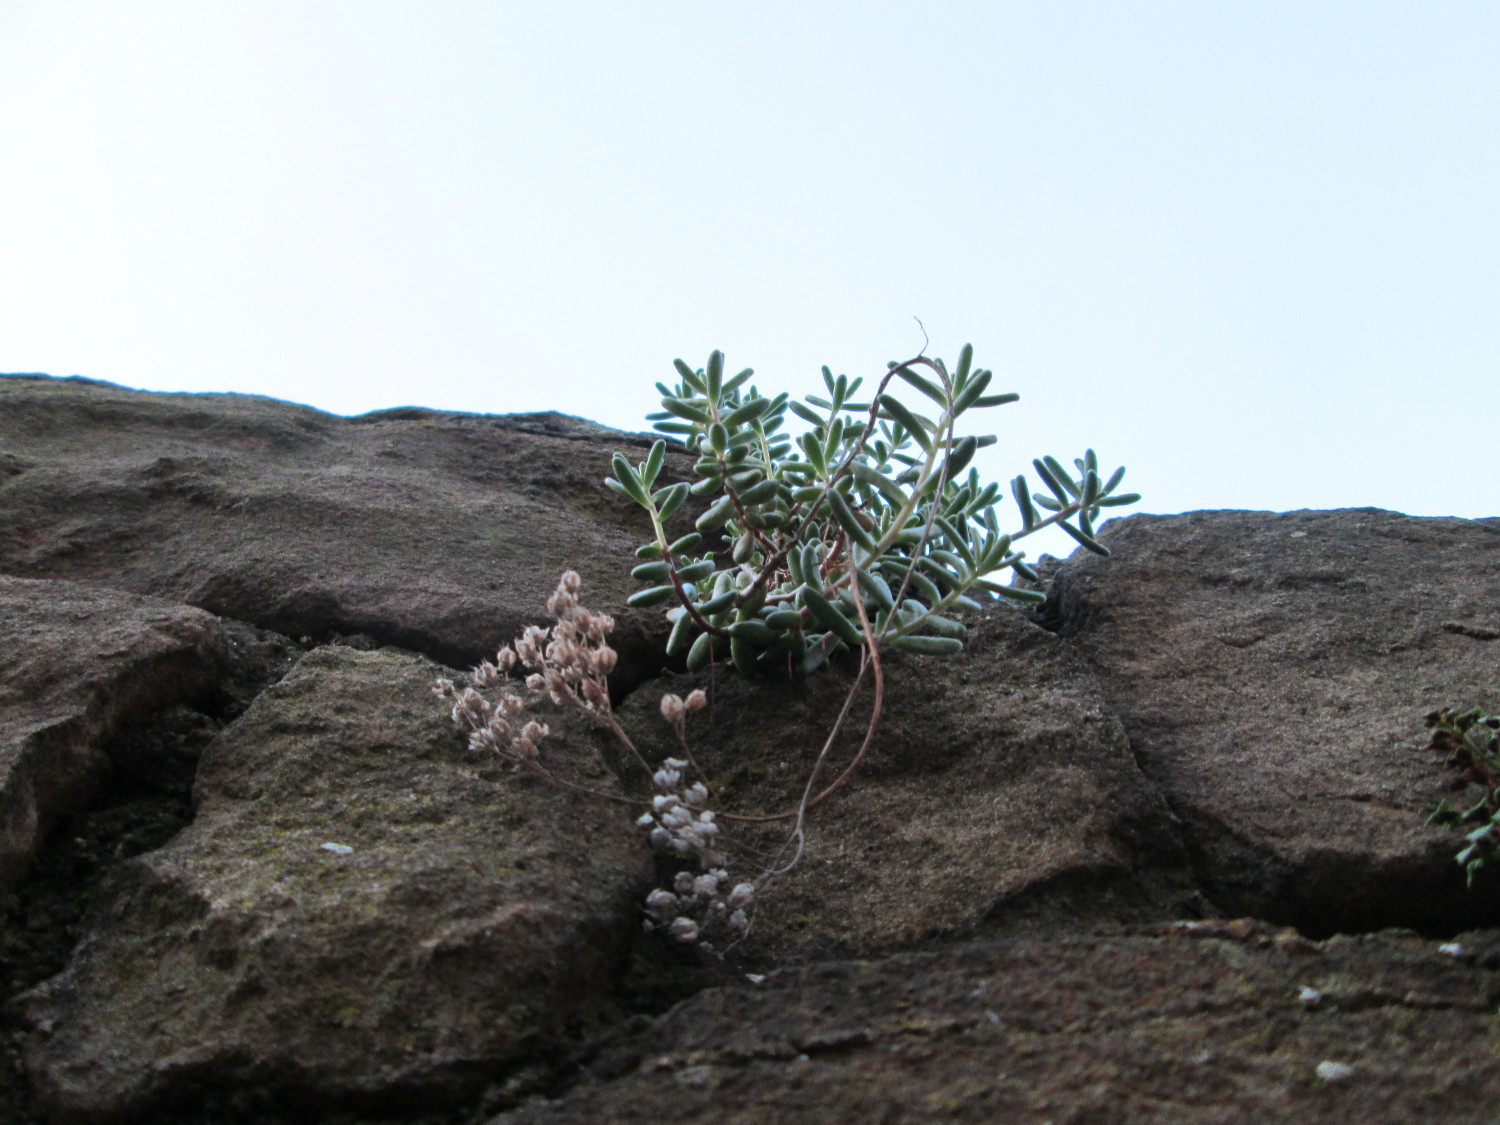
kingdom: Plantae
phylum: Tracheophyta
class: Magnoliopsida
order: Saxifragales
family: Crassulaceae
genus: Sedum
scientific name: Sedum album
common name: White stonecrop
